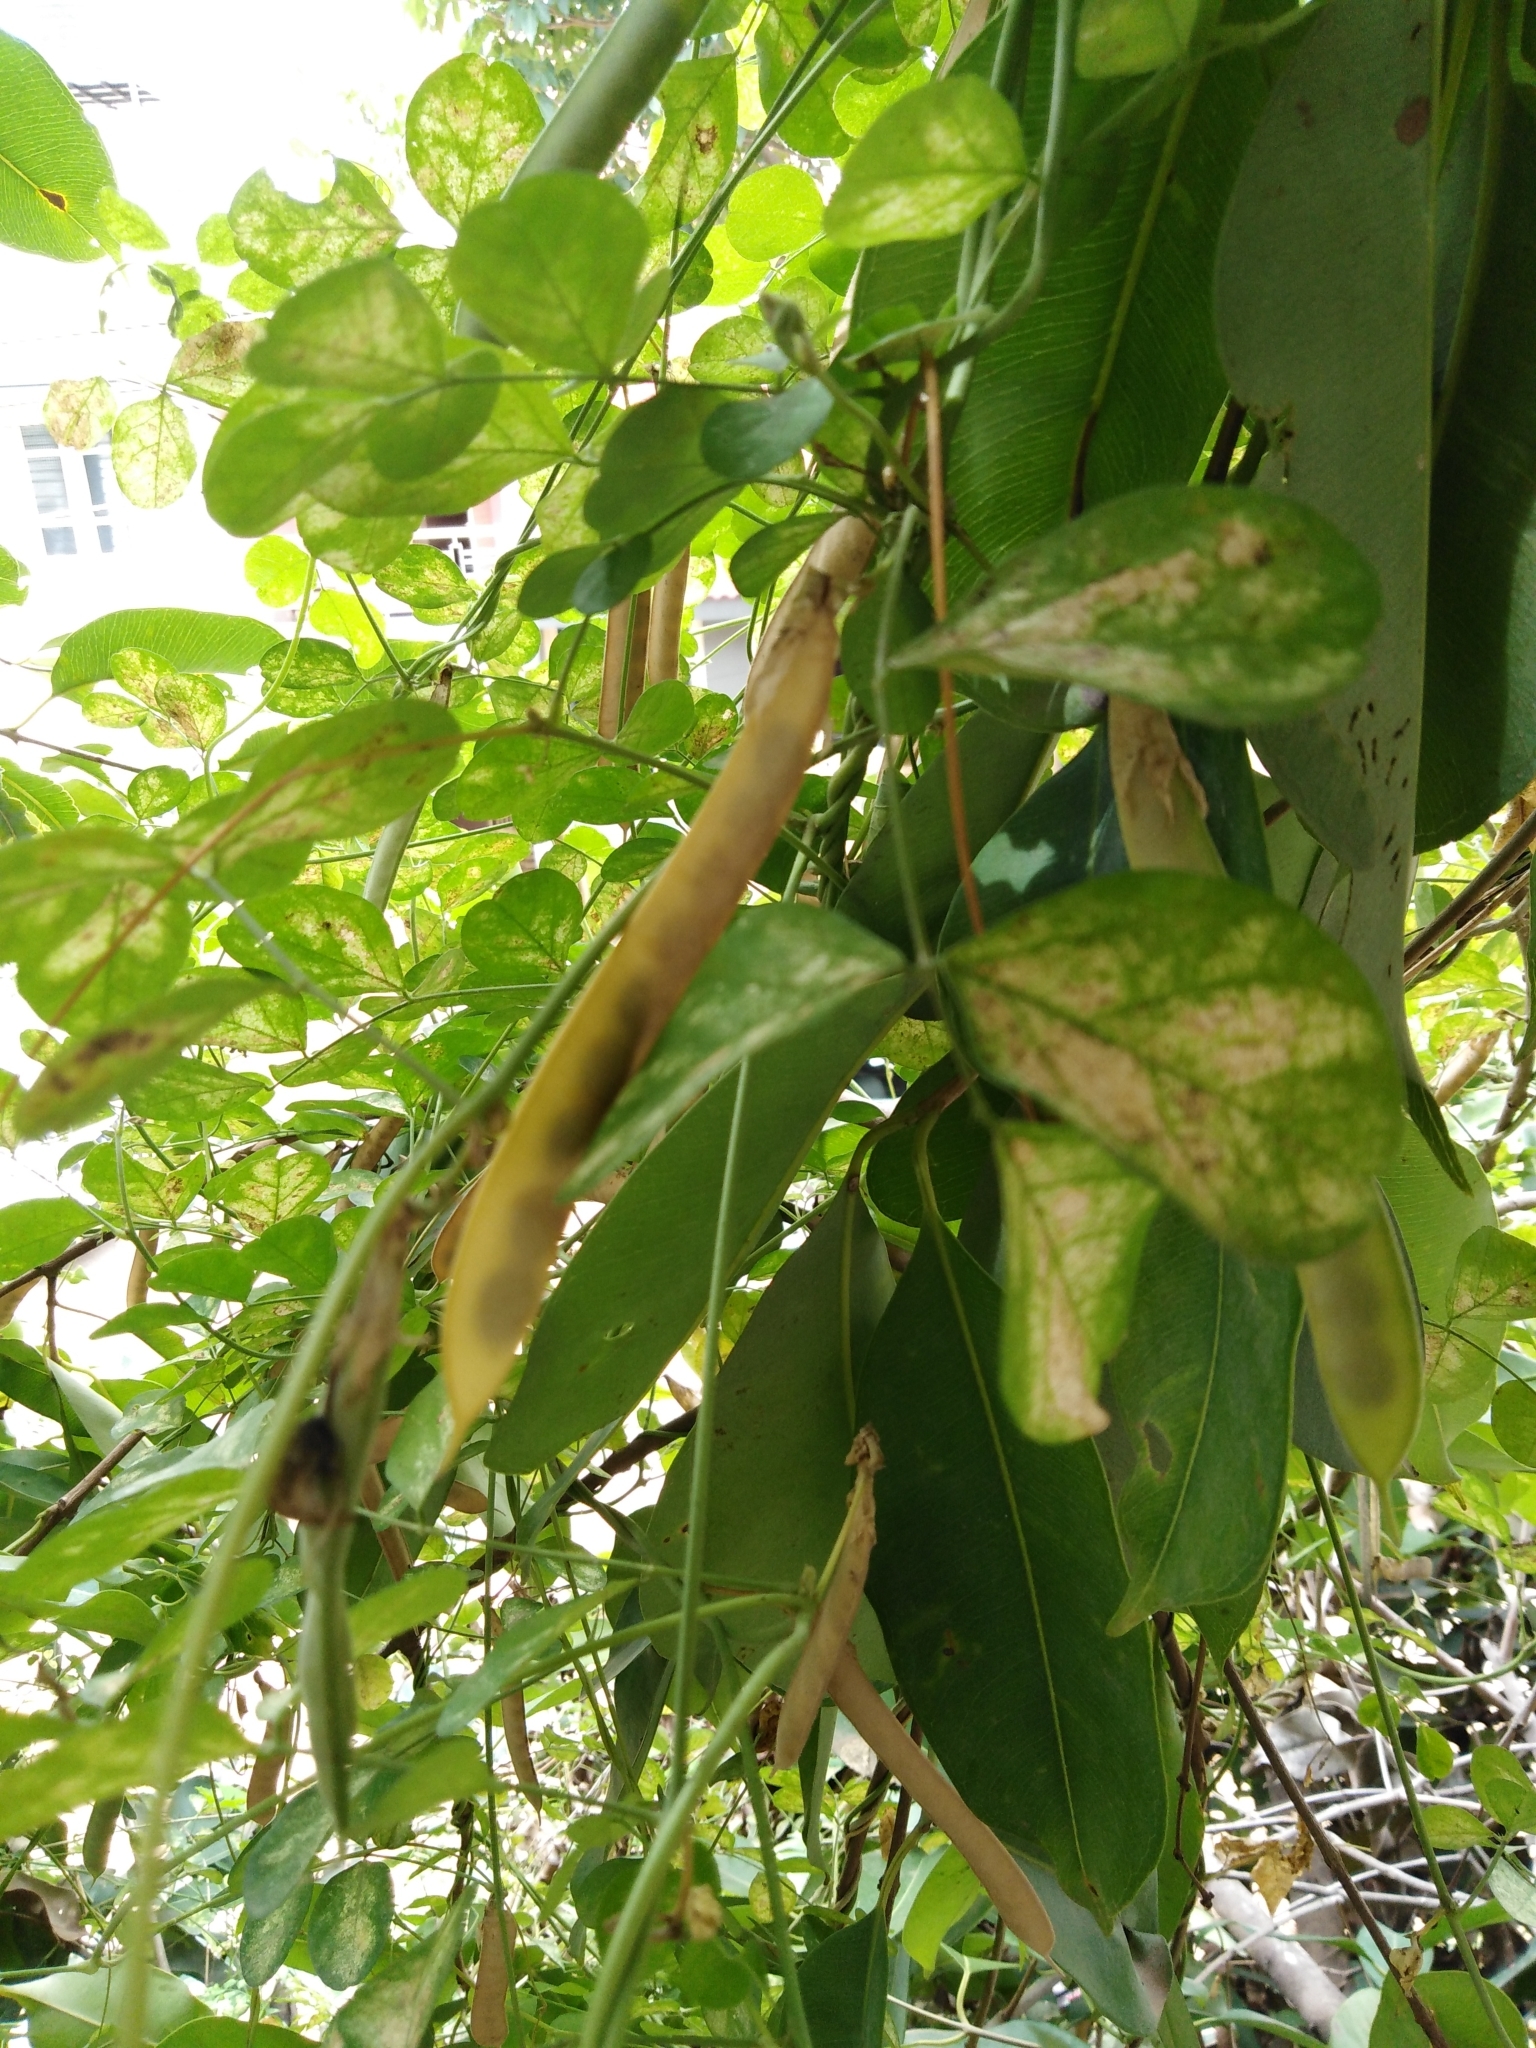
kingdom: Plantae
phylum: Tracheophyta
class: Magnoliopsida
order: Fabales
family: Fabaceae
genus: Clitoria
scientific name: Clitoria ternatea
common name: Asian pigeonwings
